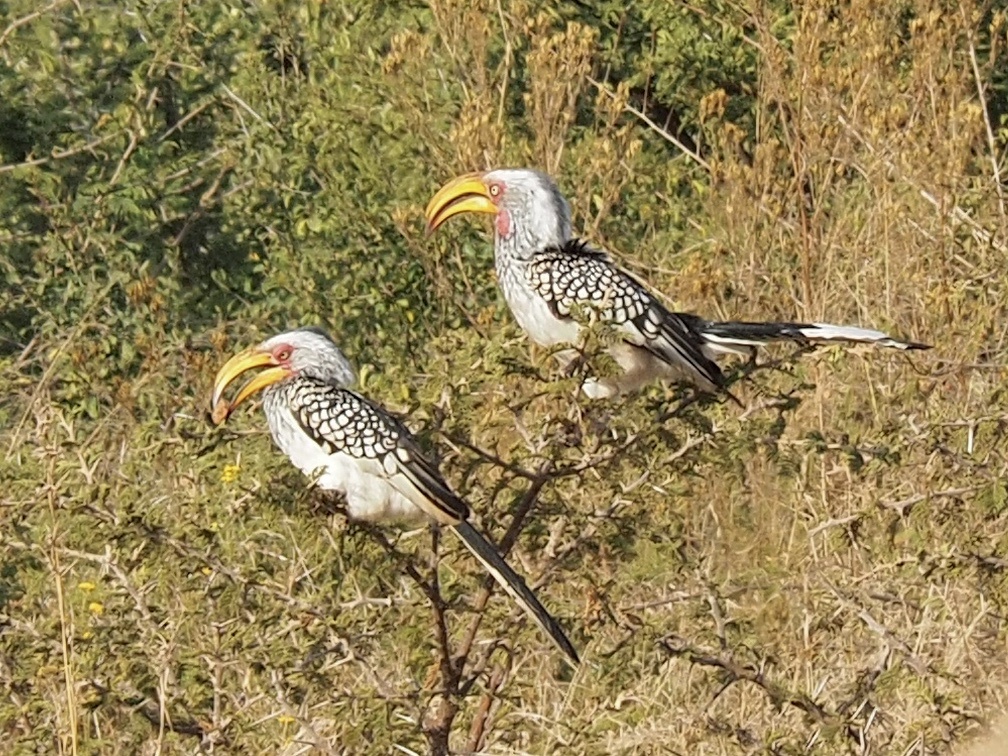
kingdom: Animalia
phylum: Chordata
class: Aves
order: Bucerotiformes
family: Bucerotidae
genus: Tockus
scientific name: Tockus leucomelas
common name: Southern yellow-billed hornbill
